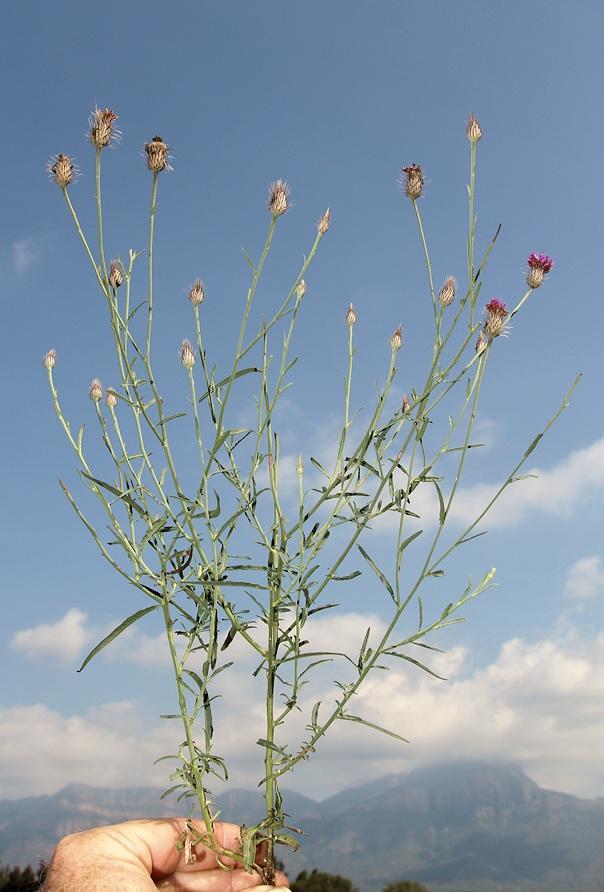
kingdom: Plantae
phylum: Tracheophyta
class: Magnoliopsida
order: Asterales
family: Asteraceae
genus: Parapolydora
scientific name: Parapolydora fastigiata
